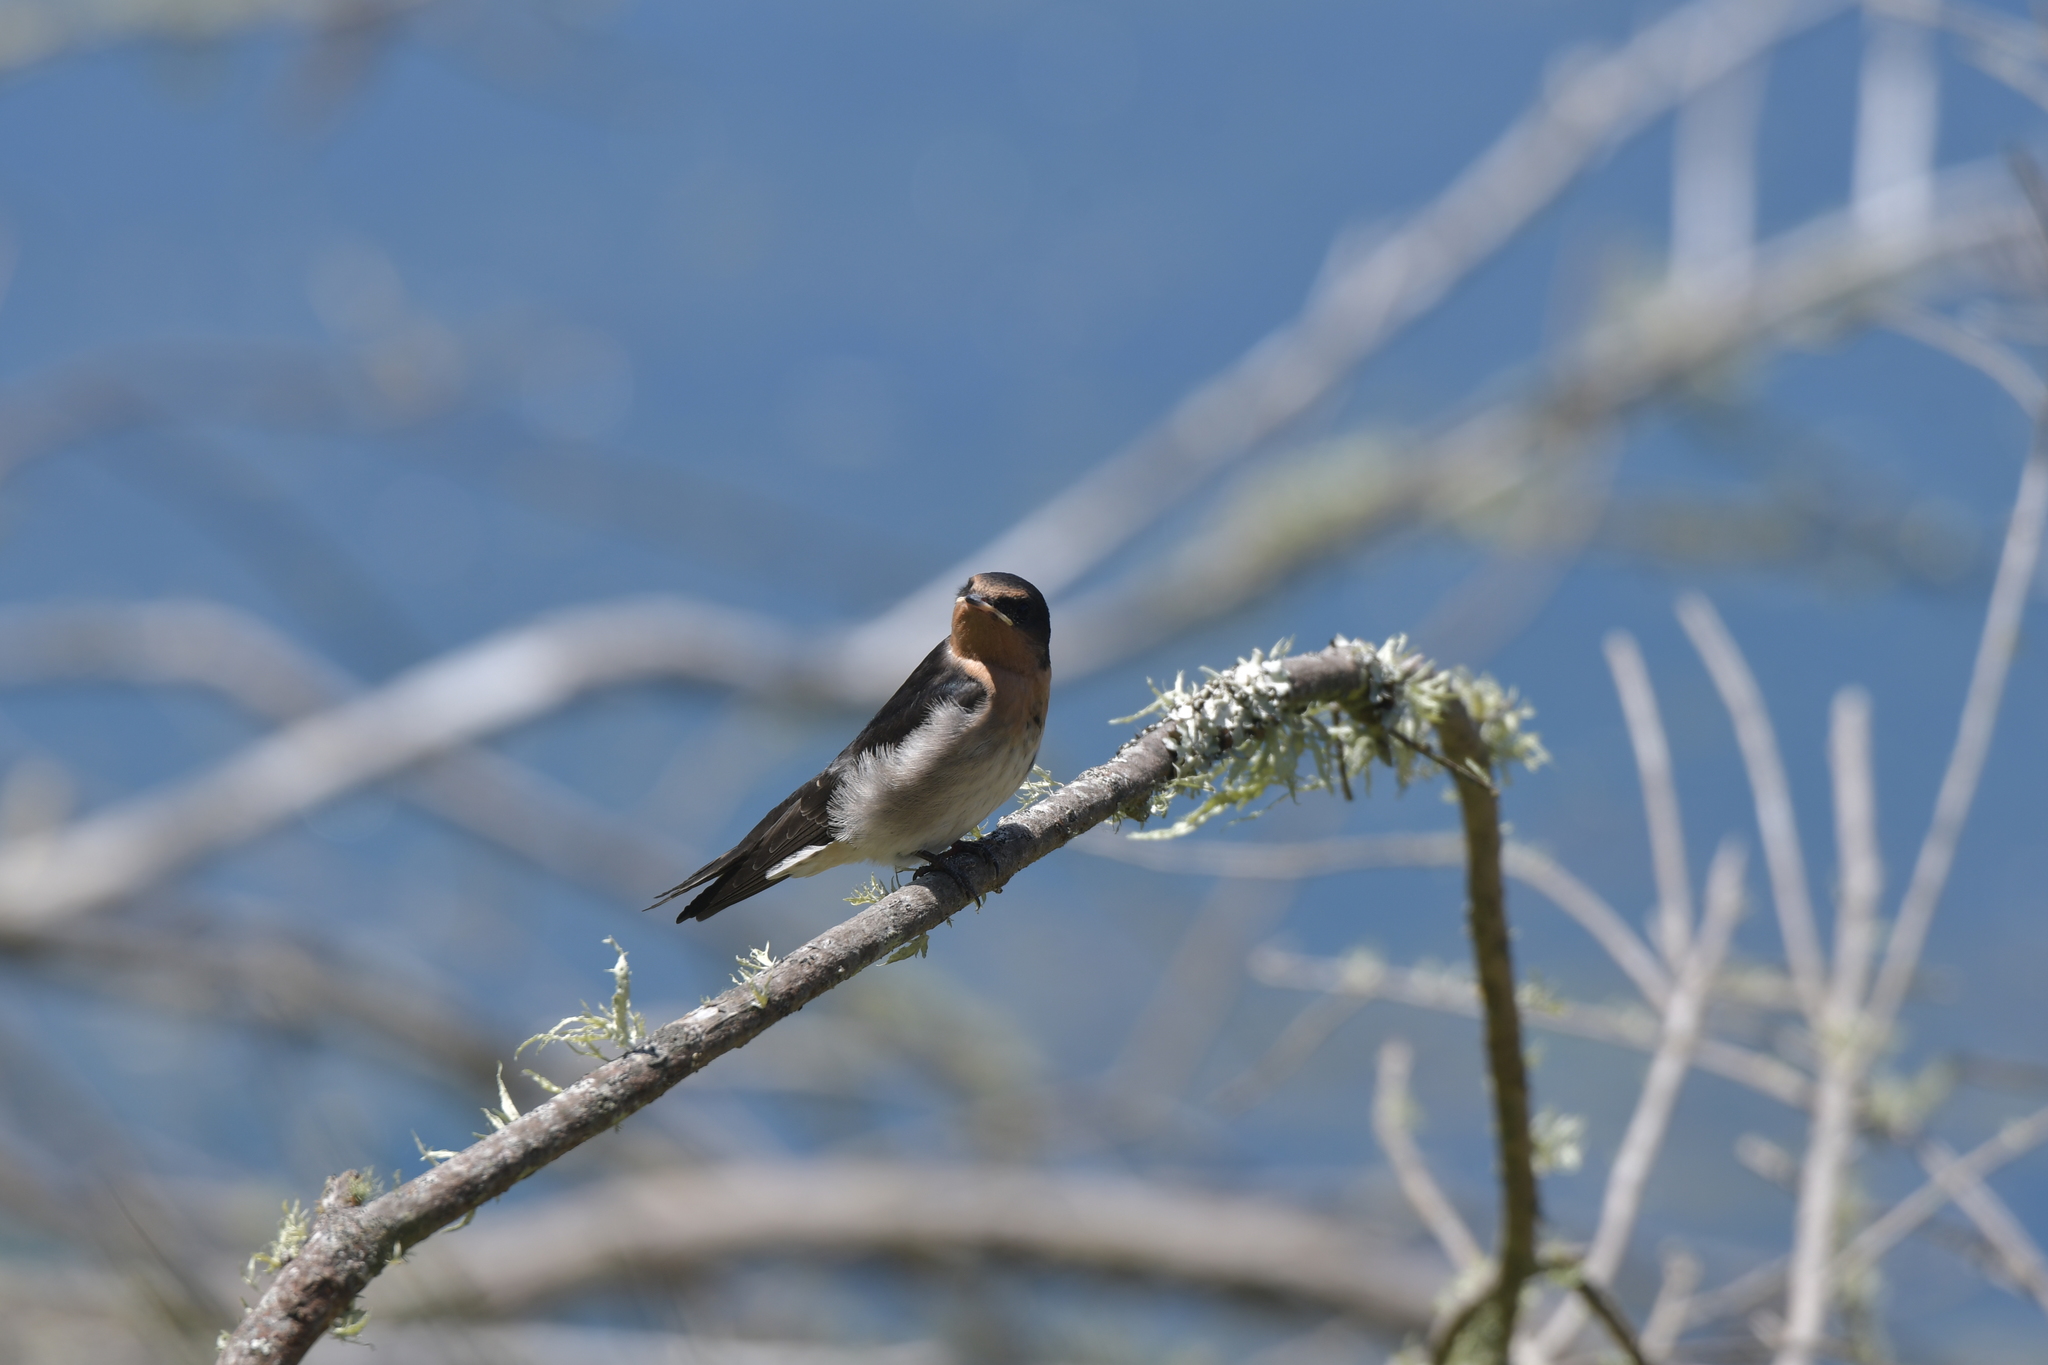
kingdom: Animalia
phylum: Chordata
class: Aves
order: Passeriformes
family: Hirundinidae
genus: Hirundo
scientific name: Hirundo neoxena
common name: Welcome swallow
